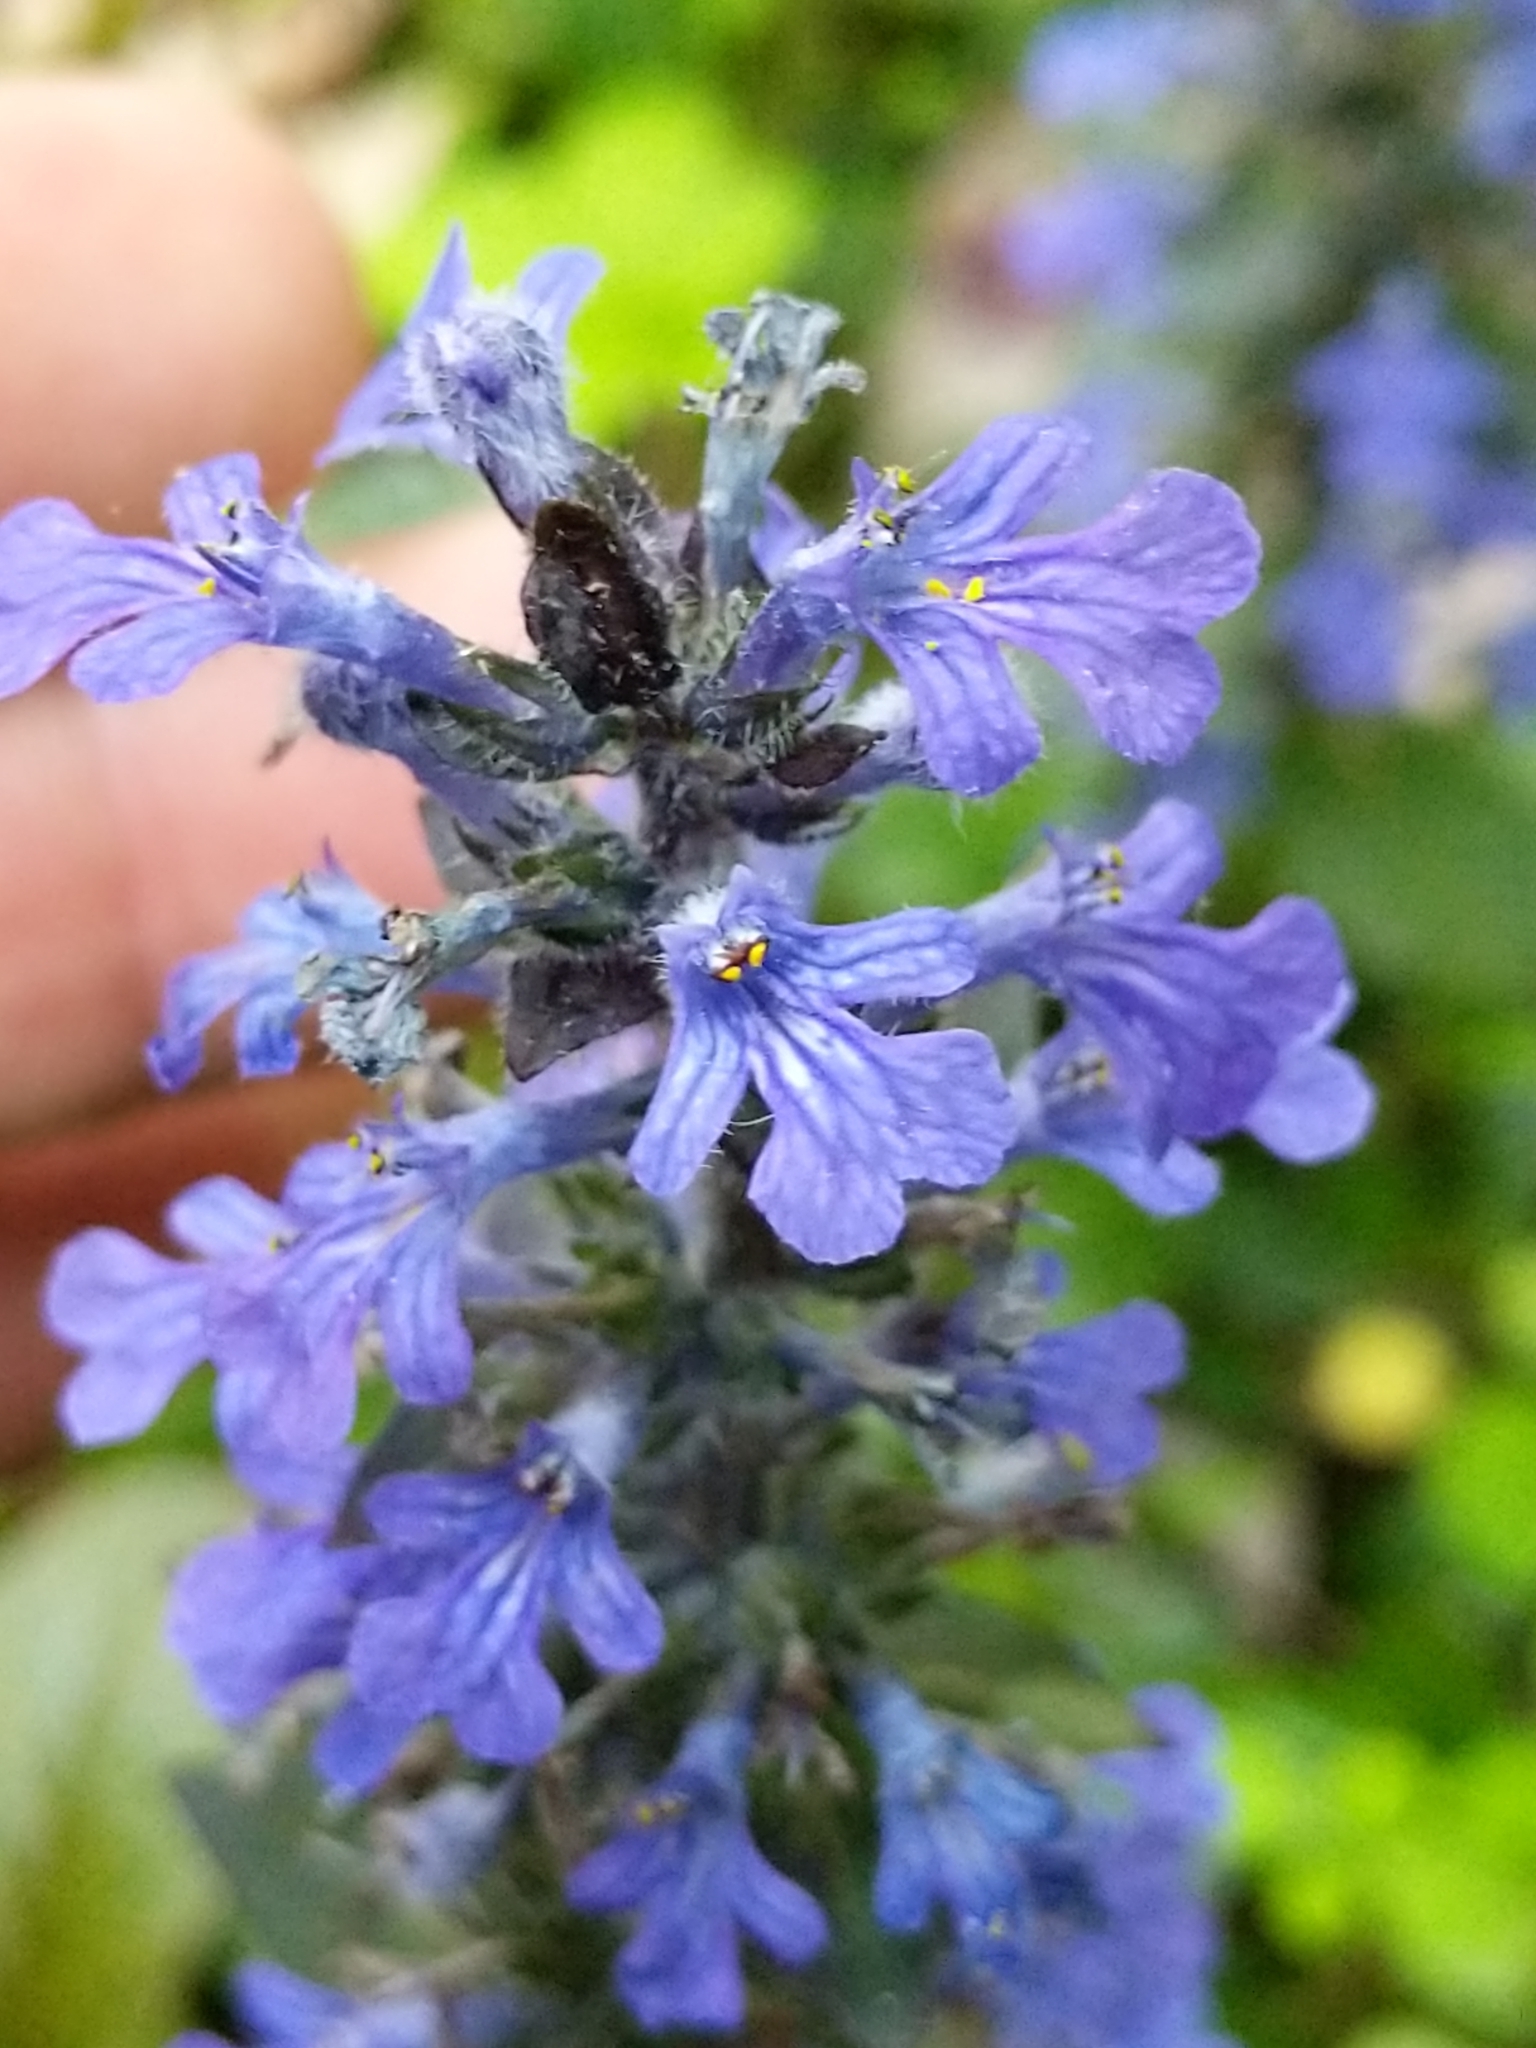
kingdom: Plantae
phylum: Tracheophyta
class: Magnoliopsida
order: Lamiales
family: Lamiaceae
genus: Ajuga
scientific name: Ajuga reptans
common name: Bugle
